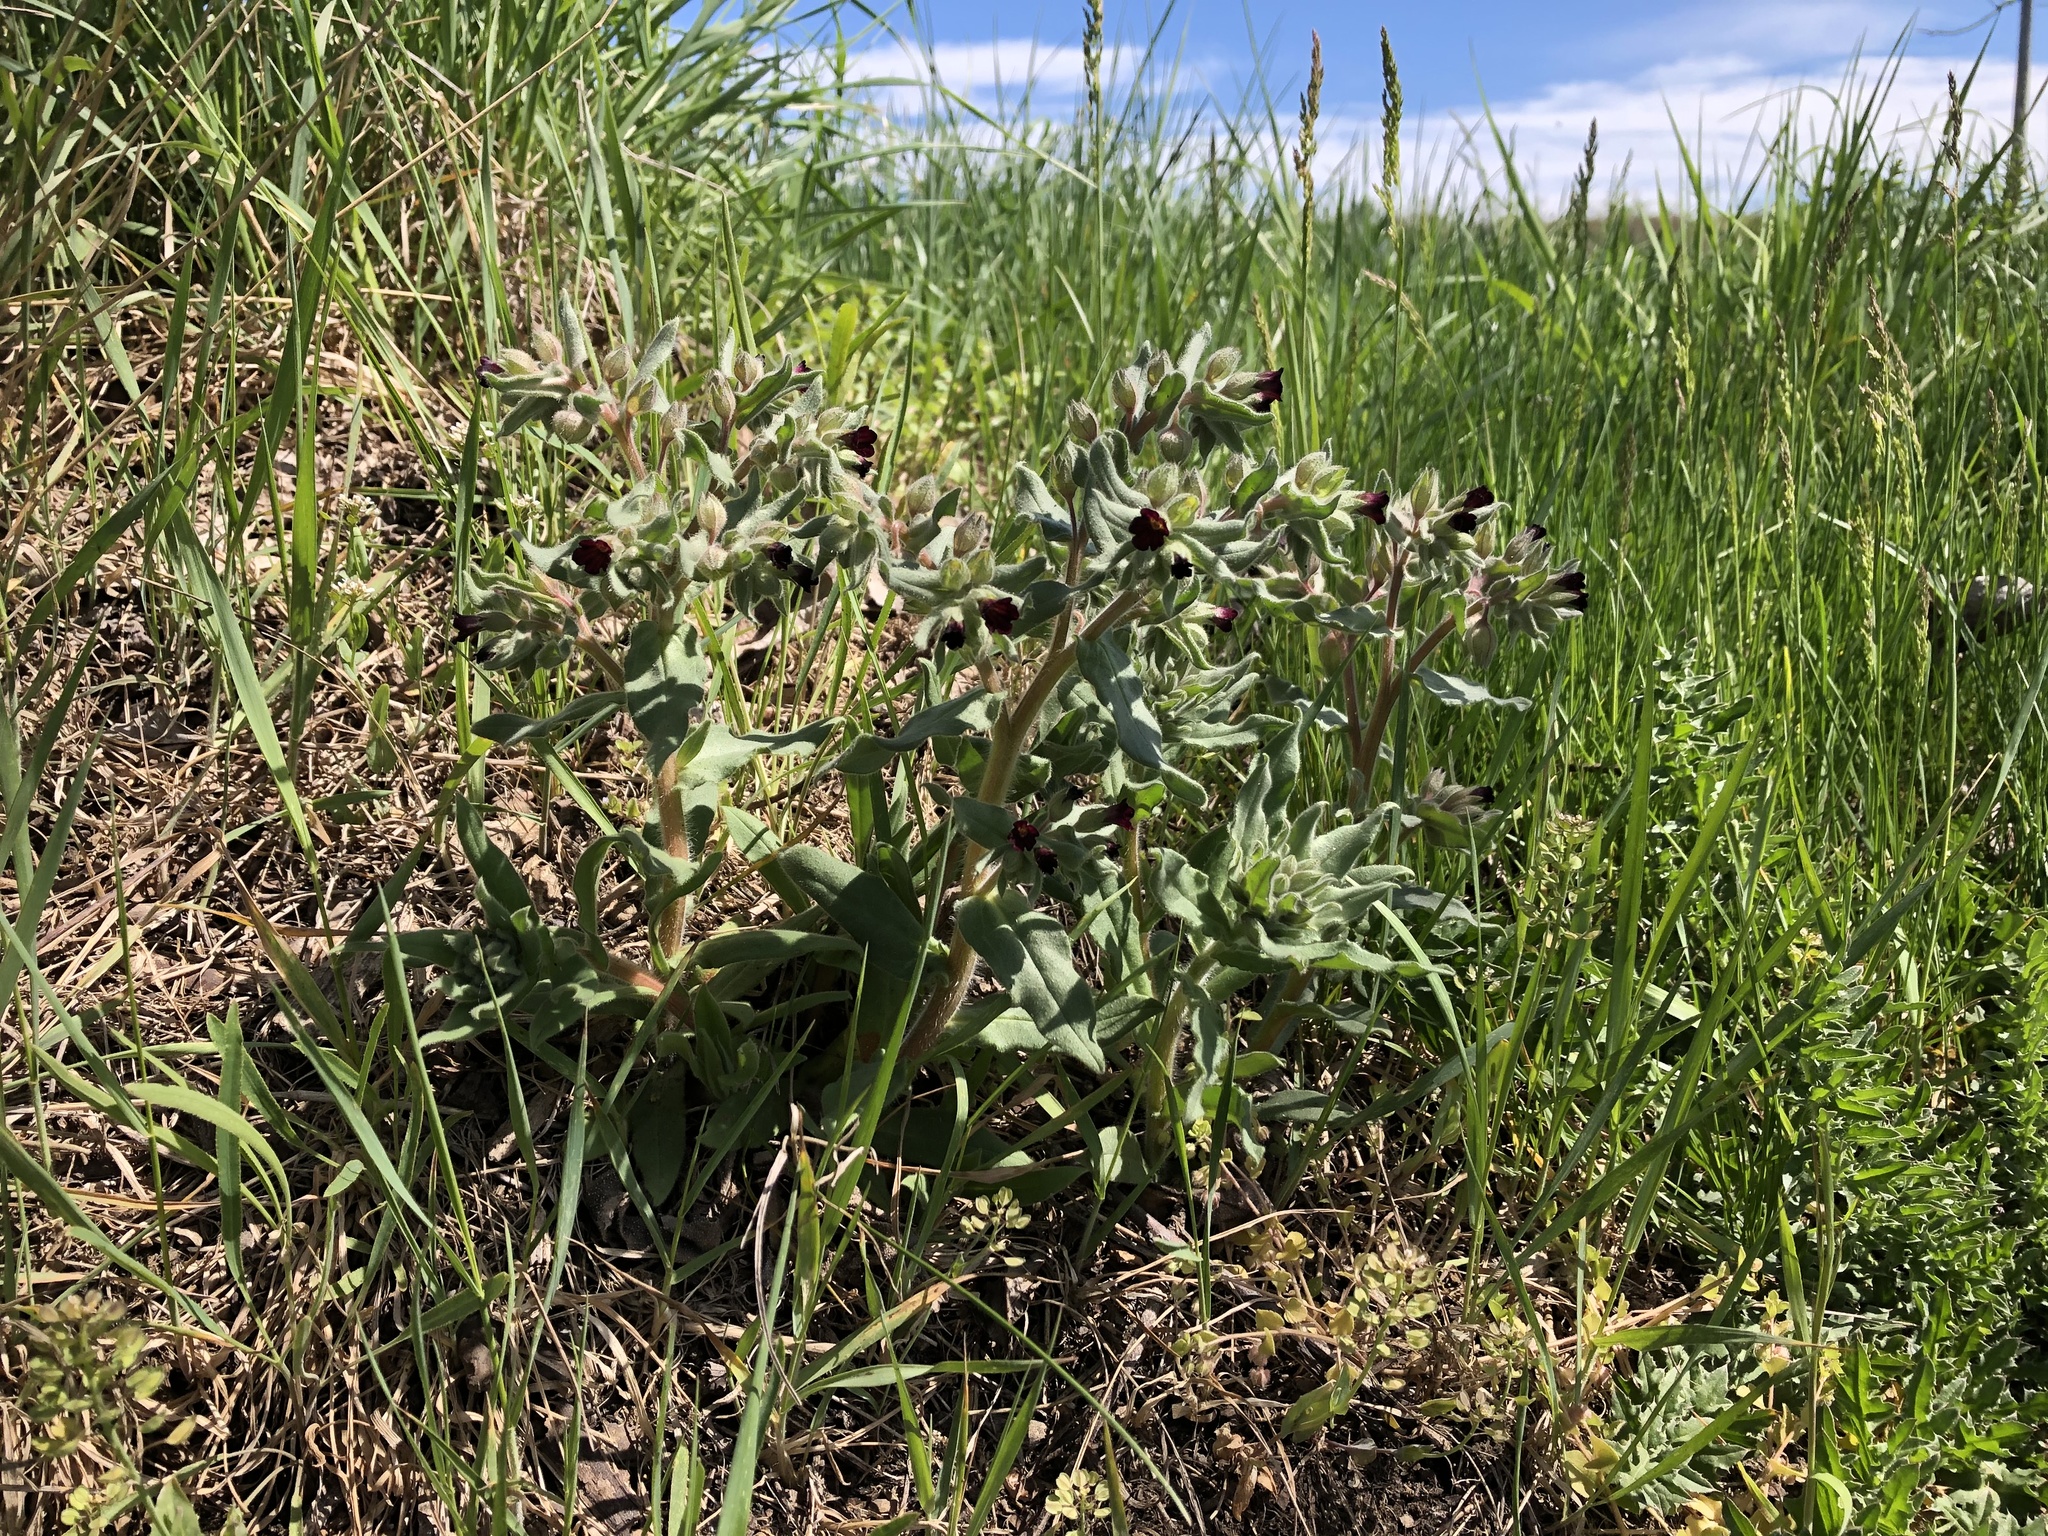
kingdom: Plantae
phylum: Tracheophyta
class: Magnoliopsida
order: Boraginales
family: Boraginaceae
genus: Nonea
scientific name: Nonea pulla
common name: Brown nonea
